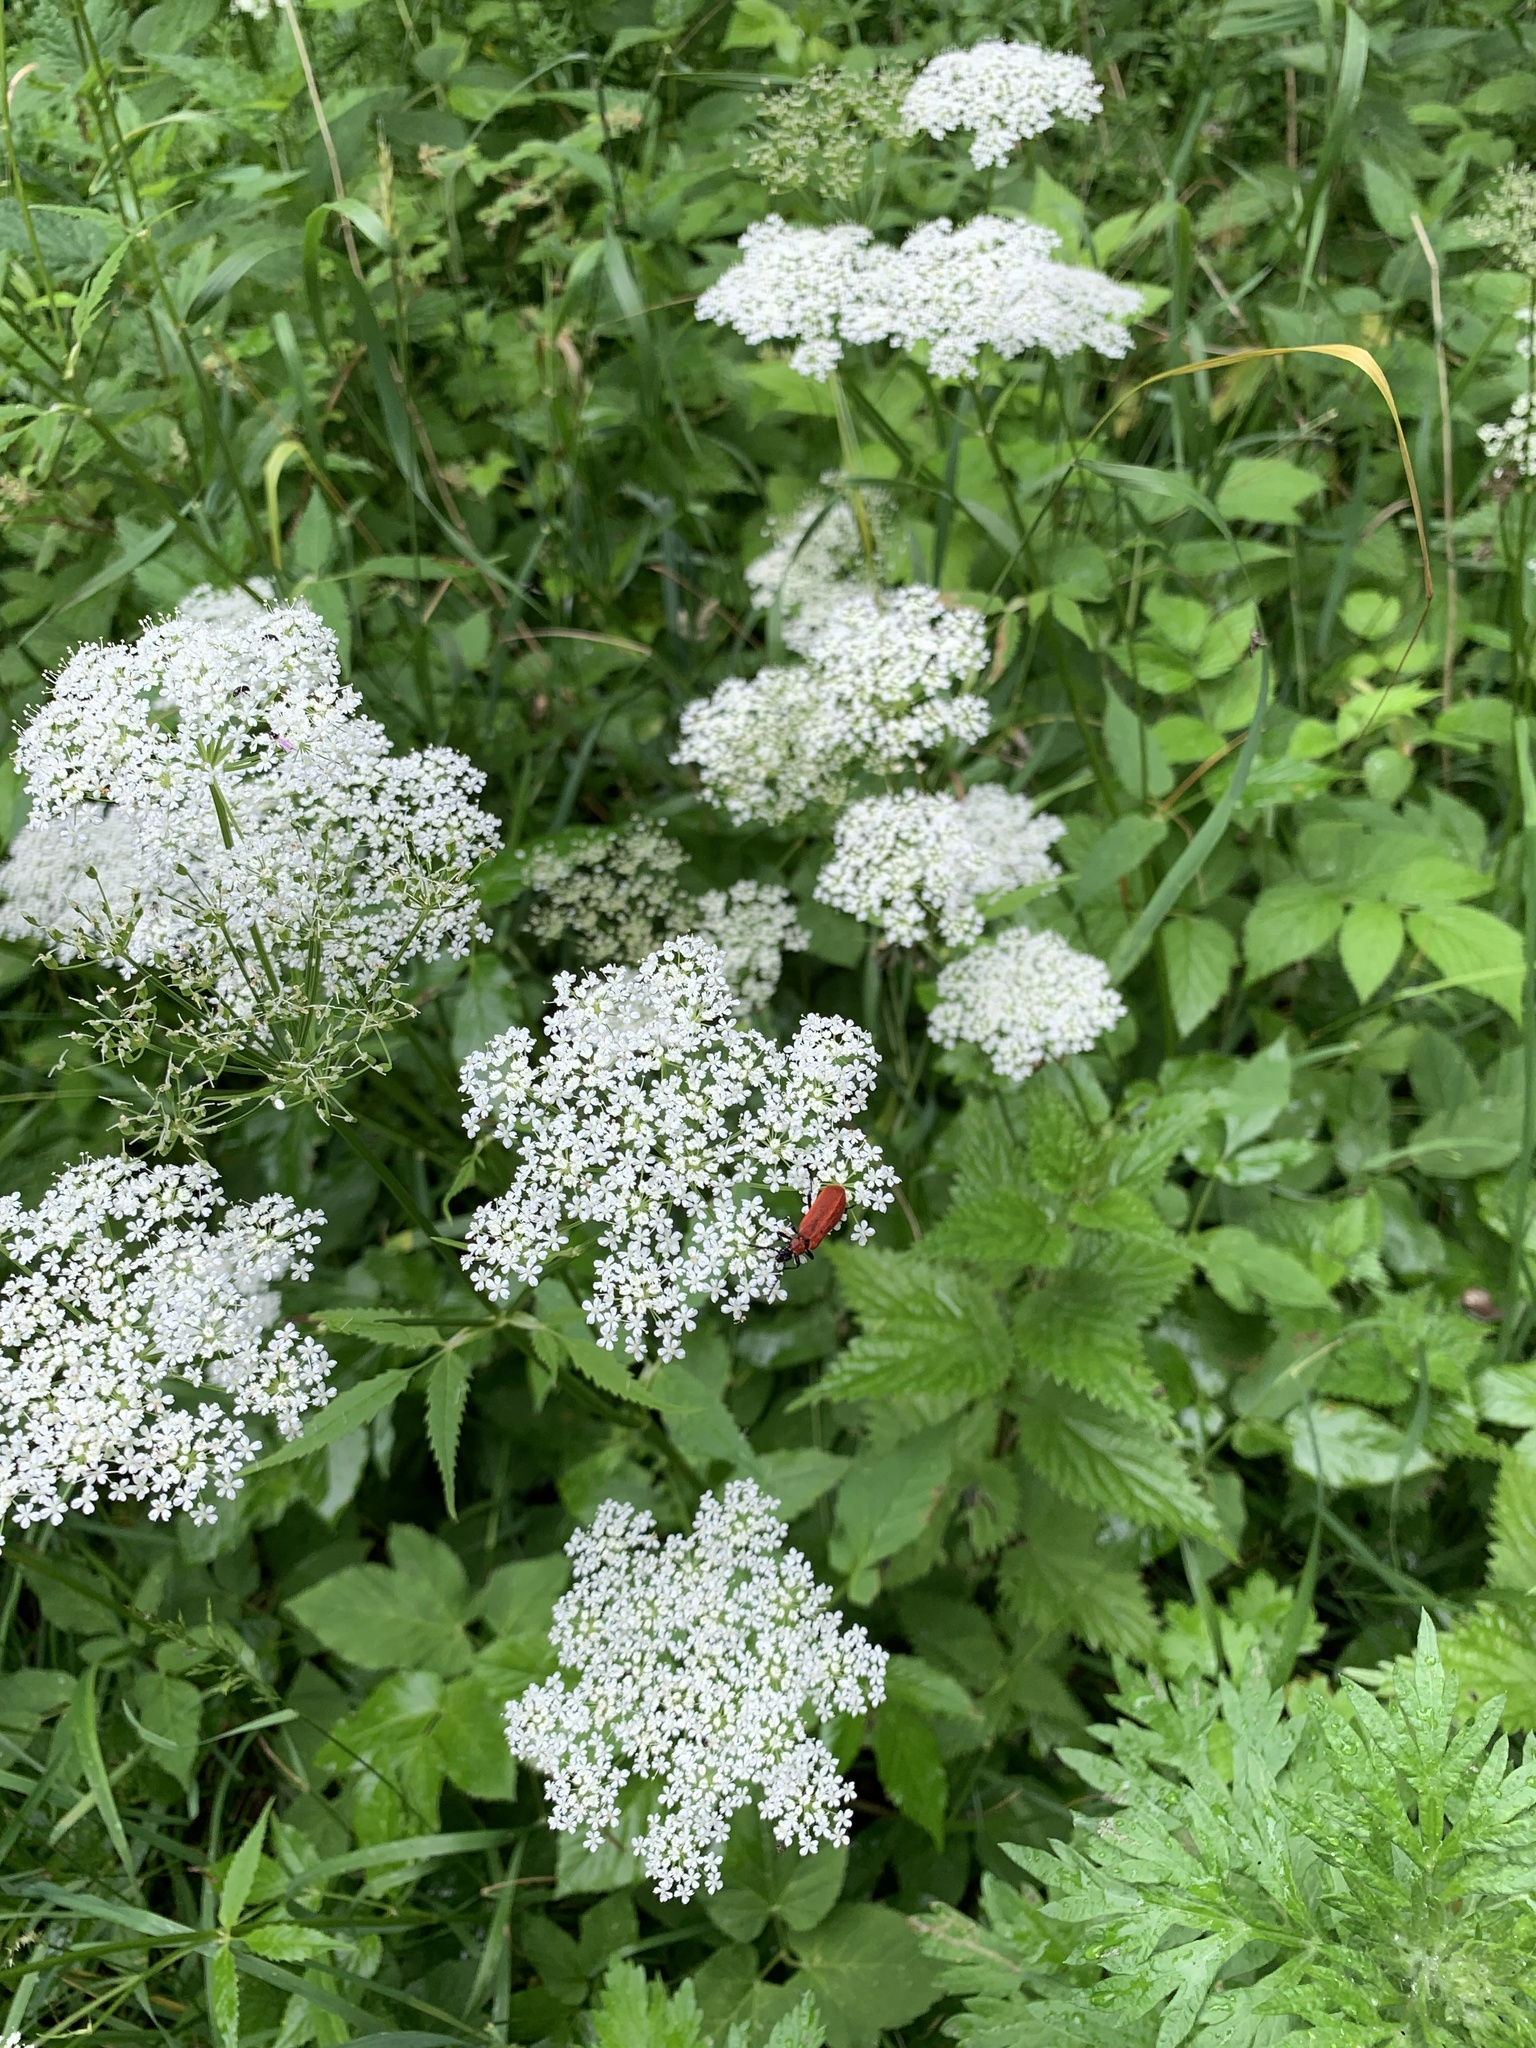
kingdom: Plantae
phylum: Tracheophyta
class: Magnoliopsida
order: Apiales
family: Apiaceae
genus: Aegopodium
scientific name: Aegopodium podagraria
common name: Ground-elder
